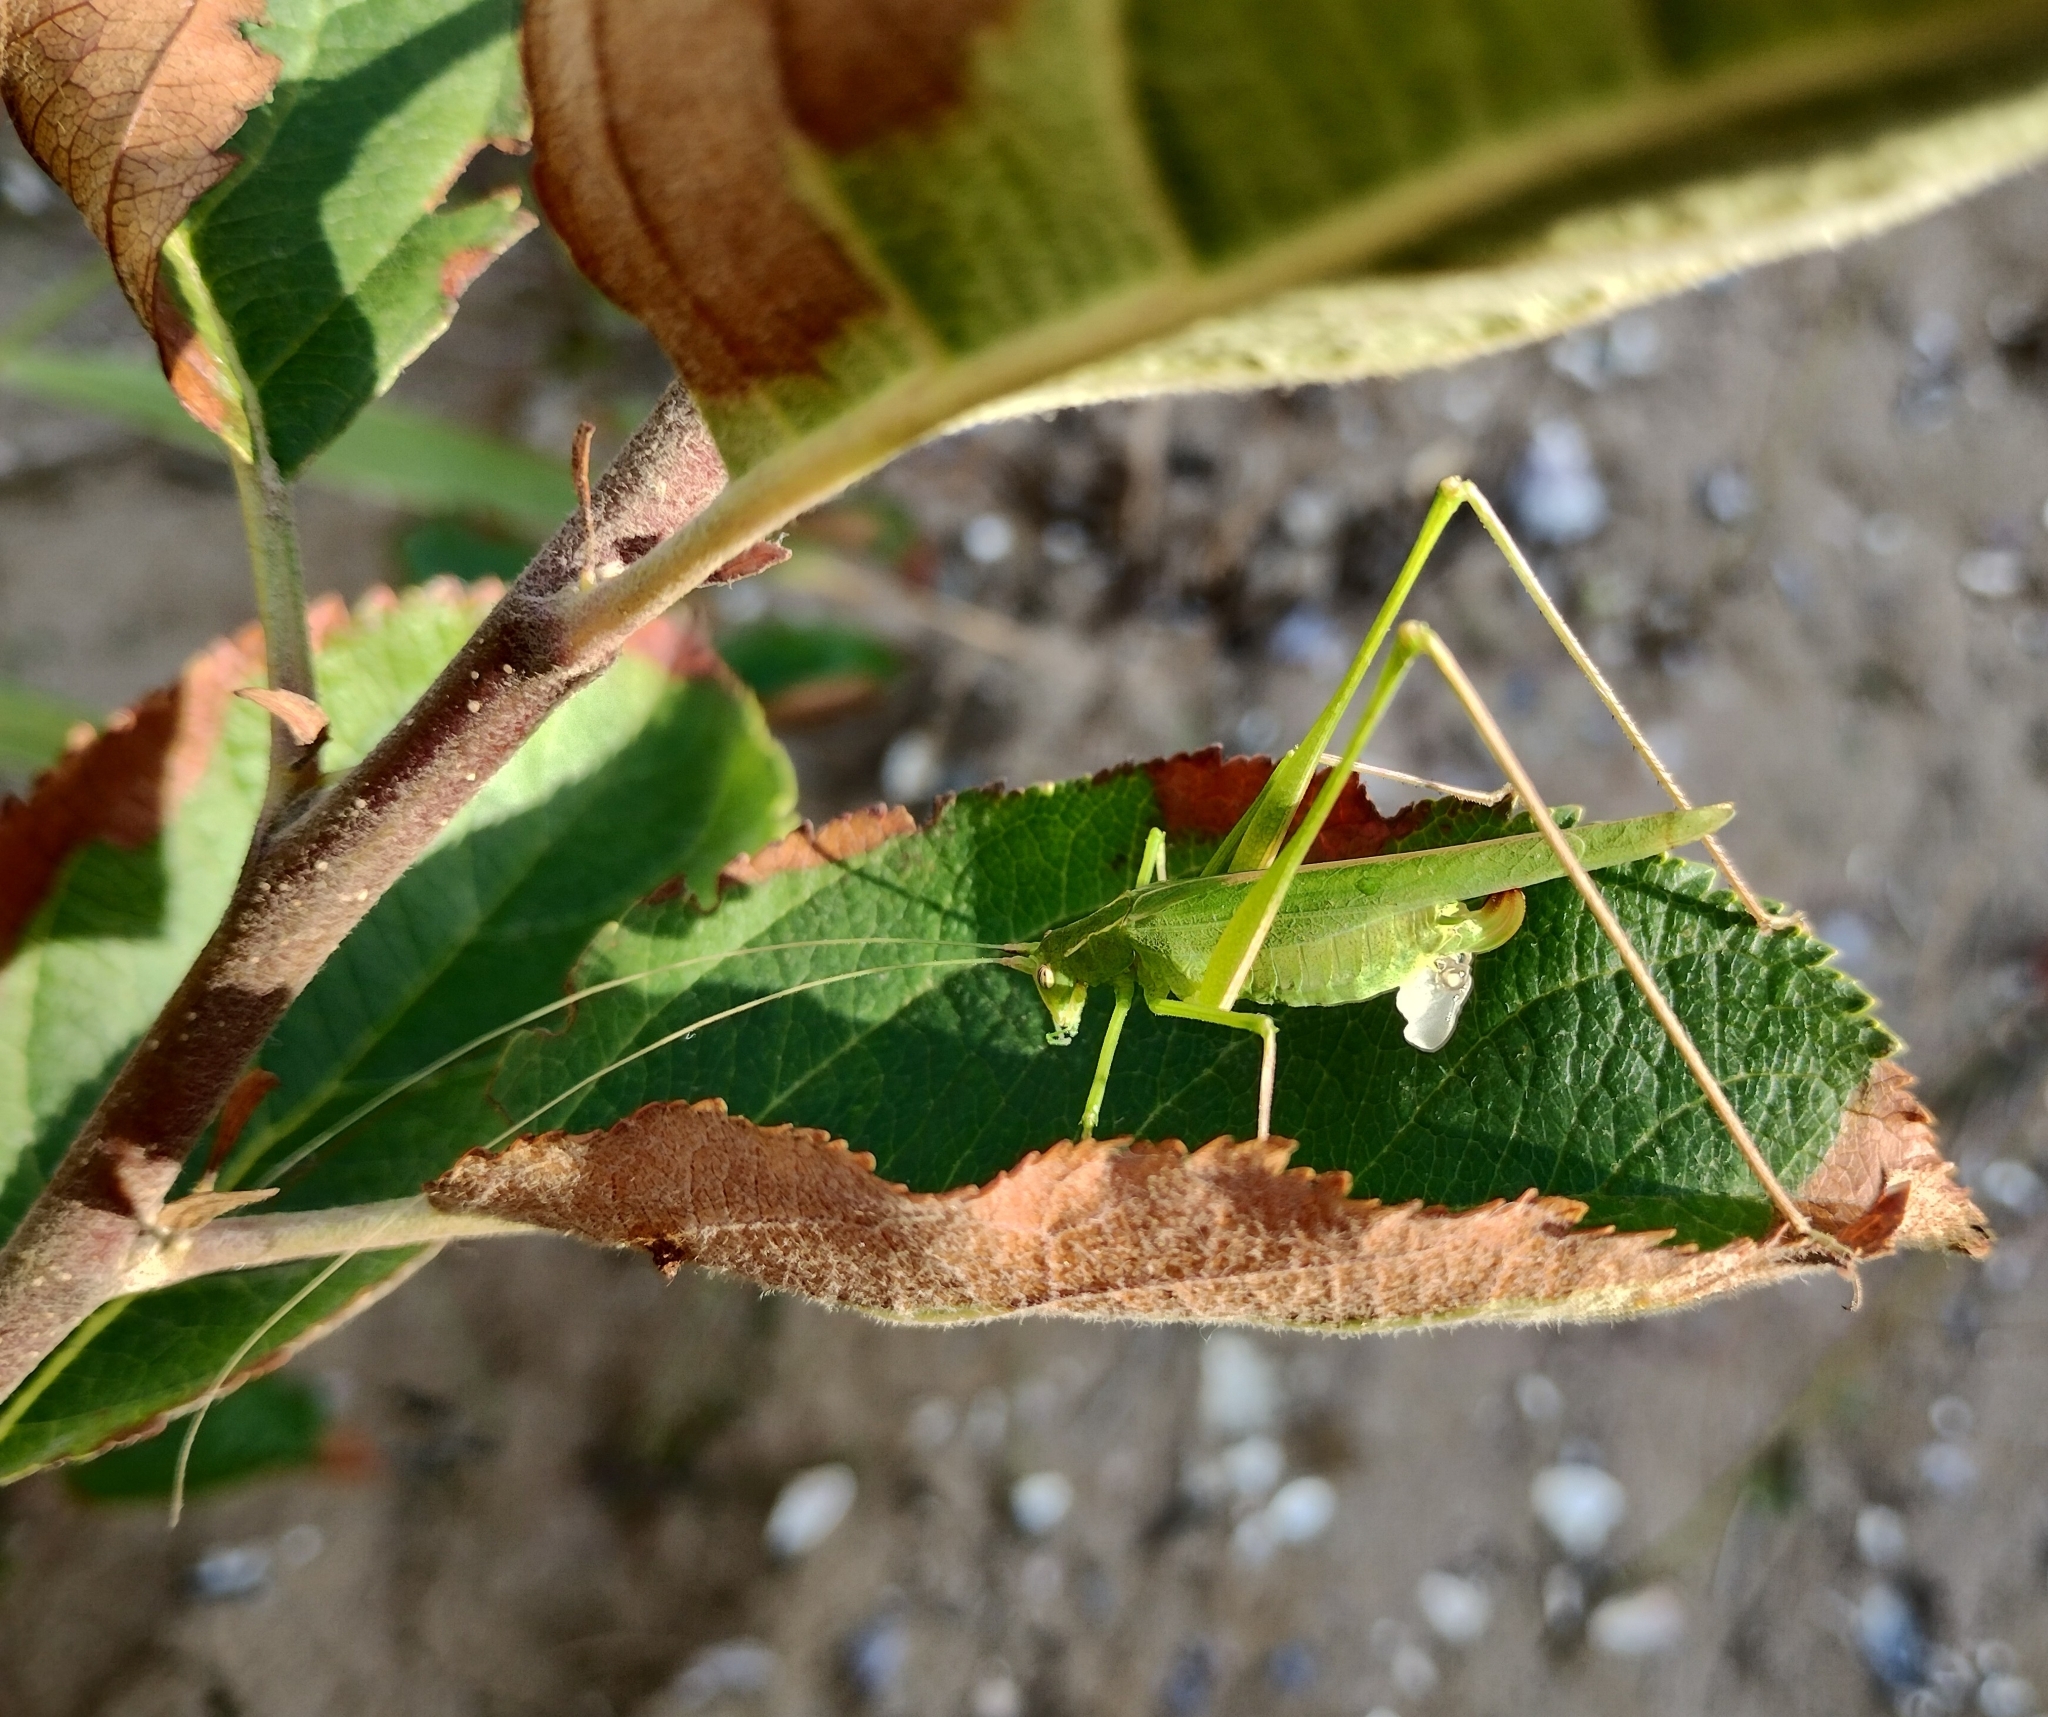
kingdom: Animalia
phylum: Arthropoda
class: Insecta
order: Orthoptera
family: Tettigoniidae
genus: Tylopsis
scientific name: Tylopsis lilifolia
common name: Lily bush-cricket
